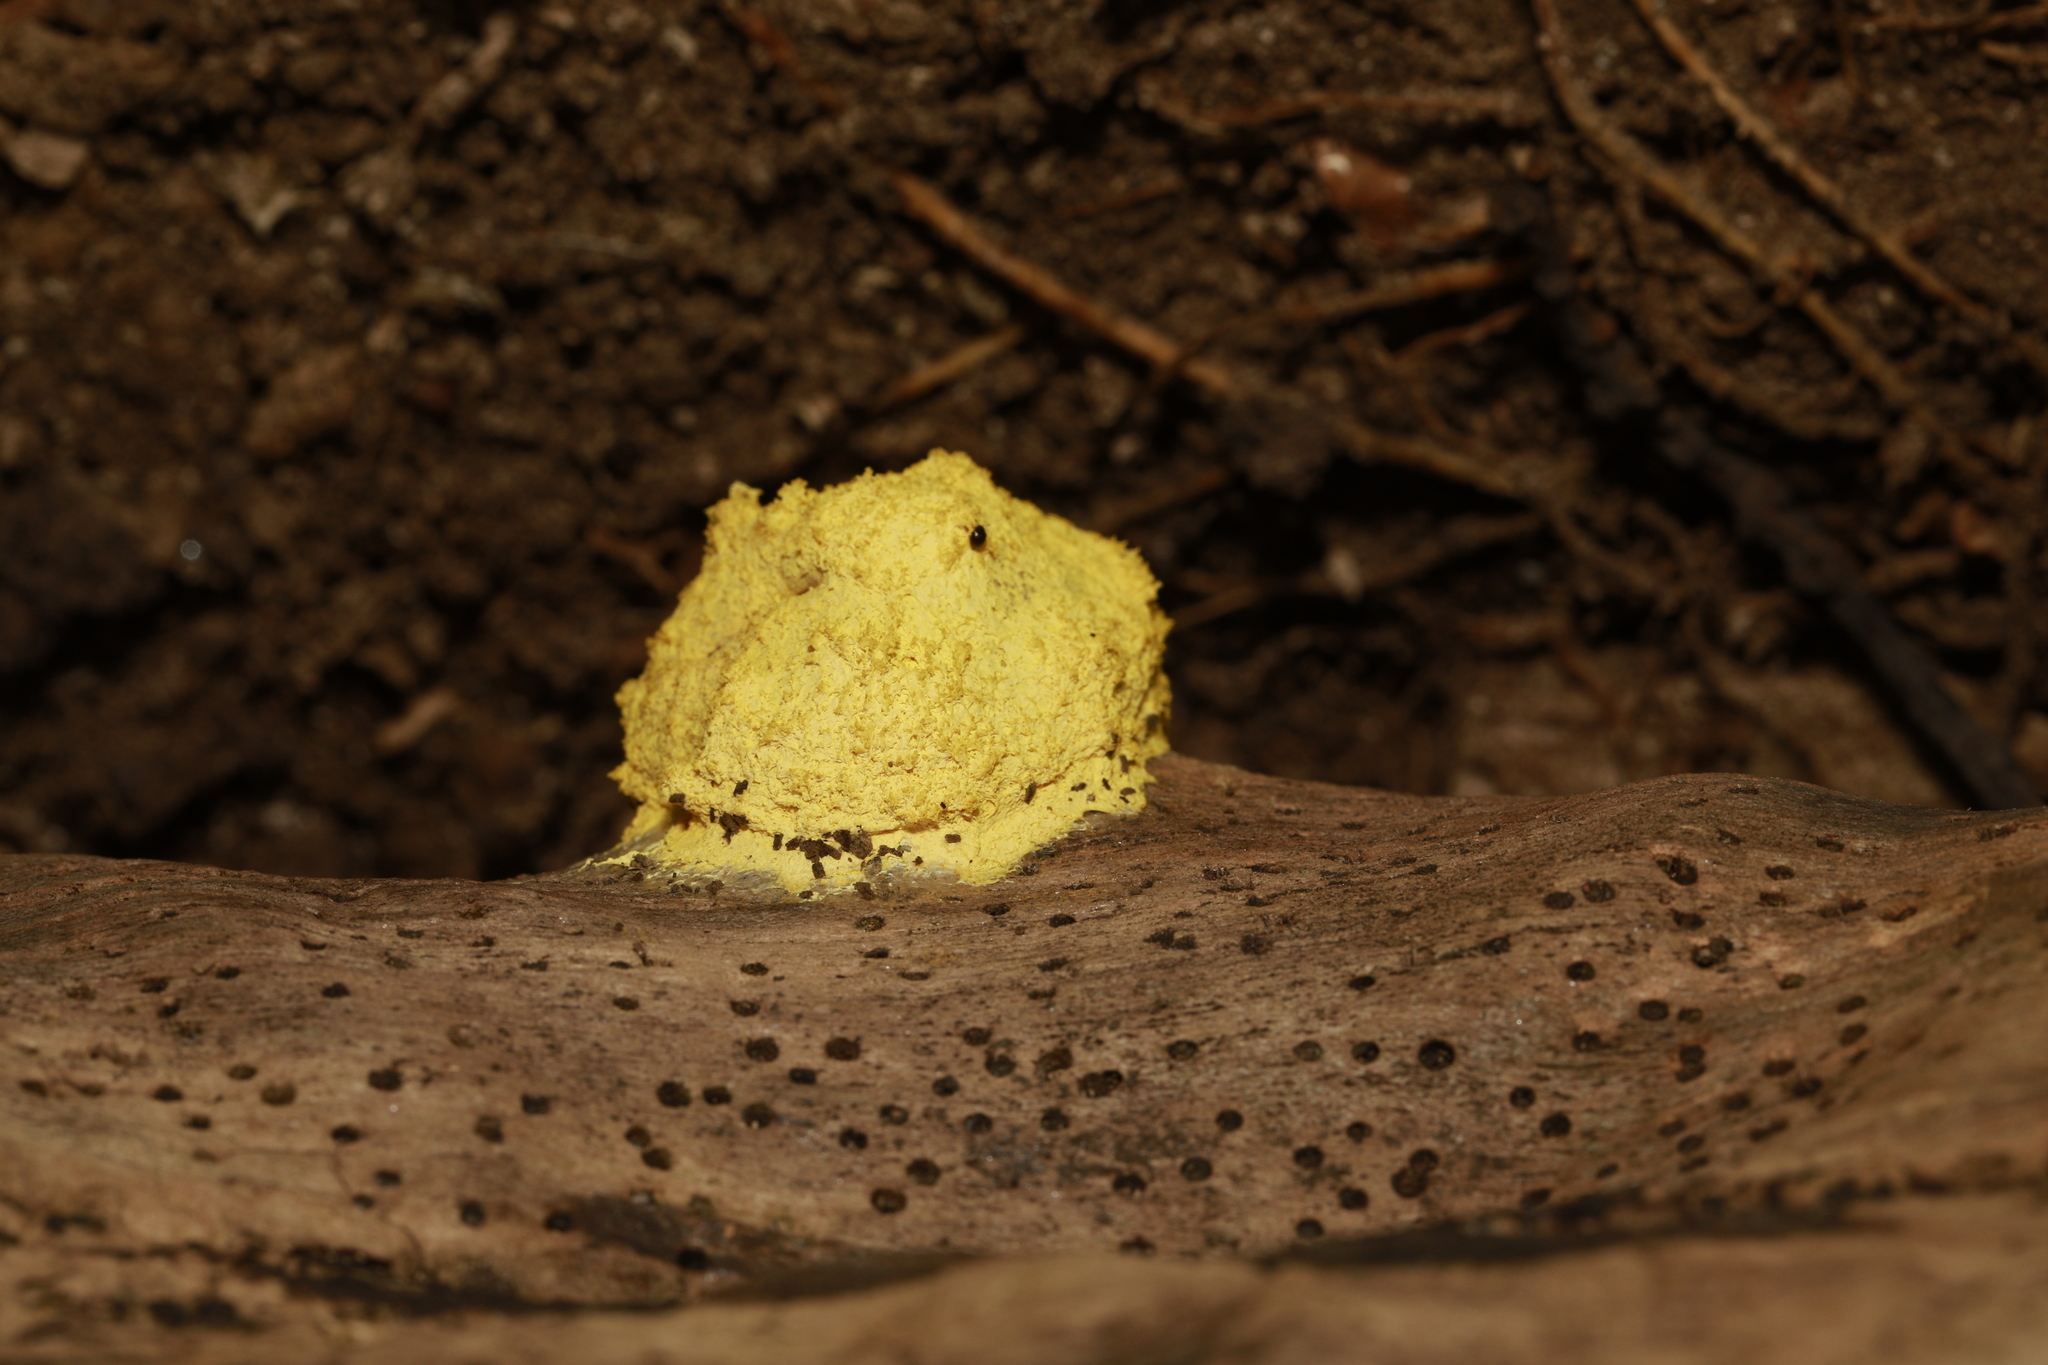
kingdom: Protozoa
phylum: Mycetozoa
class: Myxomycetes
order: Physarales
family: Physaraceae
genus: Fuligo
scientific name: Fuligo septica
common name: Dog vomit slime mold
